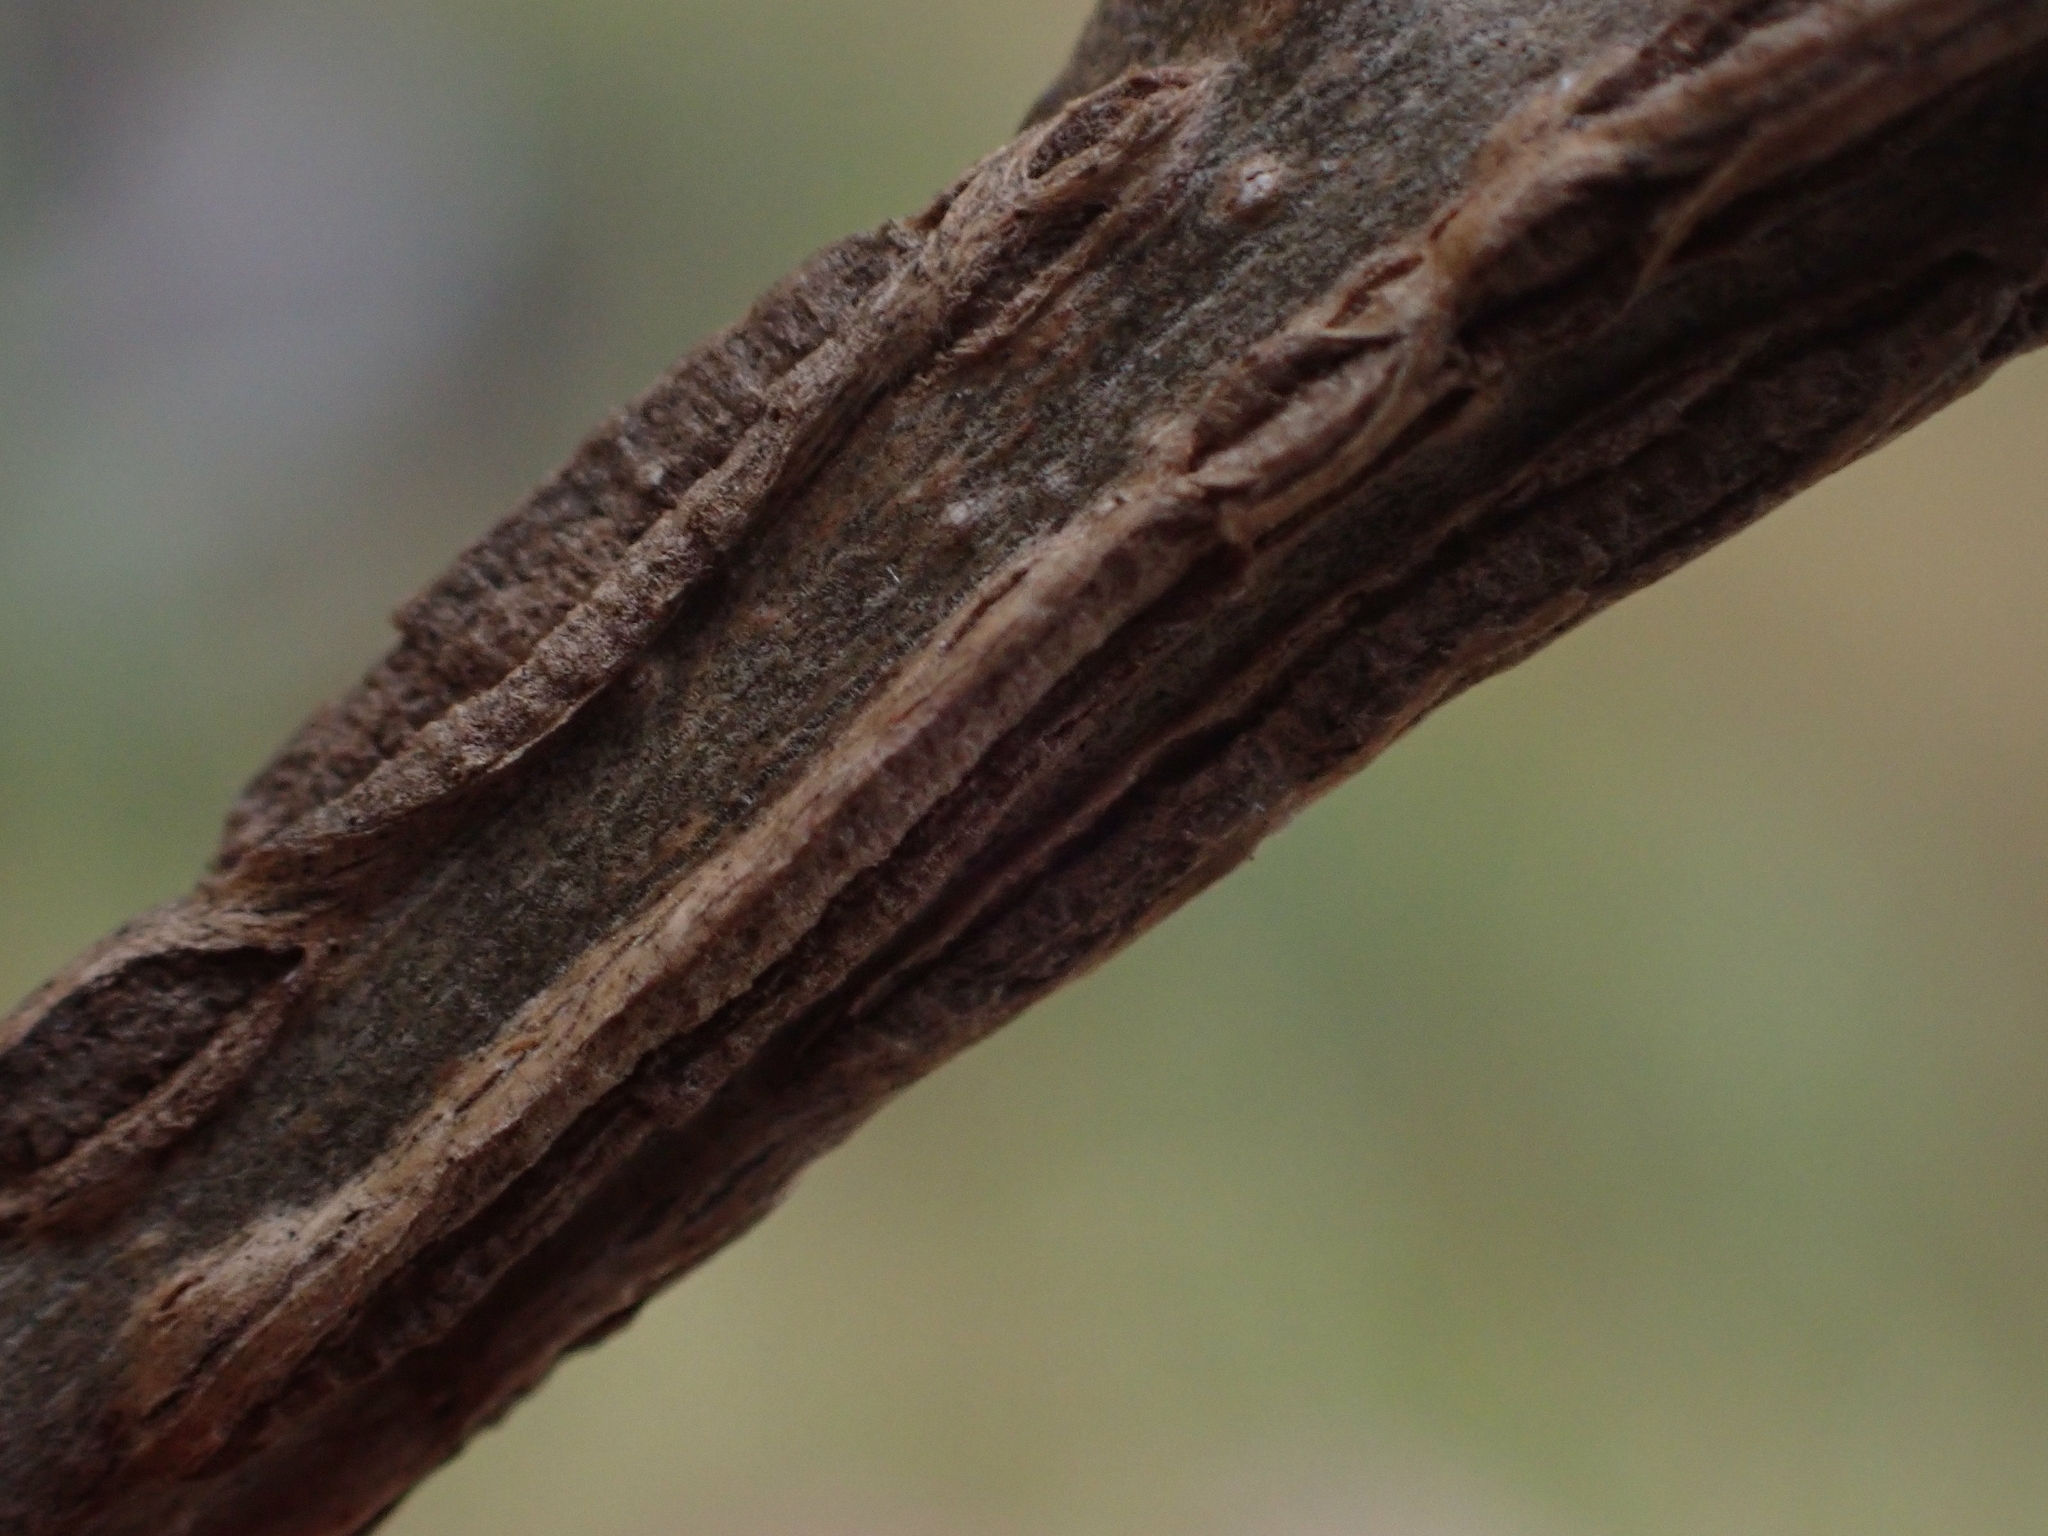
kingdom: Plantae
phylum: Tracheophyta
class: Magnoliopsida
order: Fagales
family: Fagaceae
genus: Quercus
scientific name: Quercus macrocarpa
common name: Bur oak
